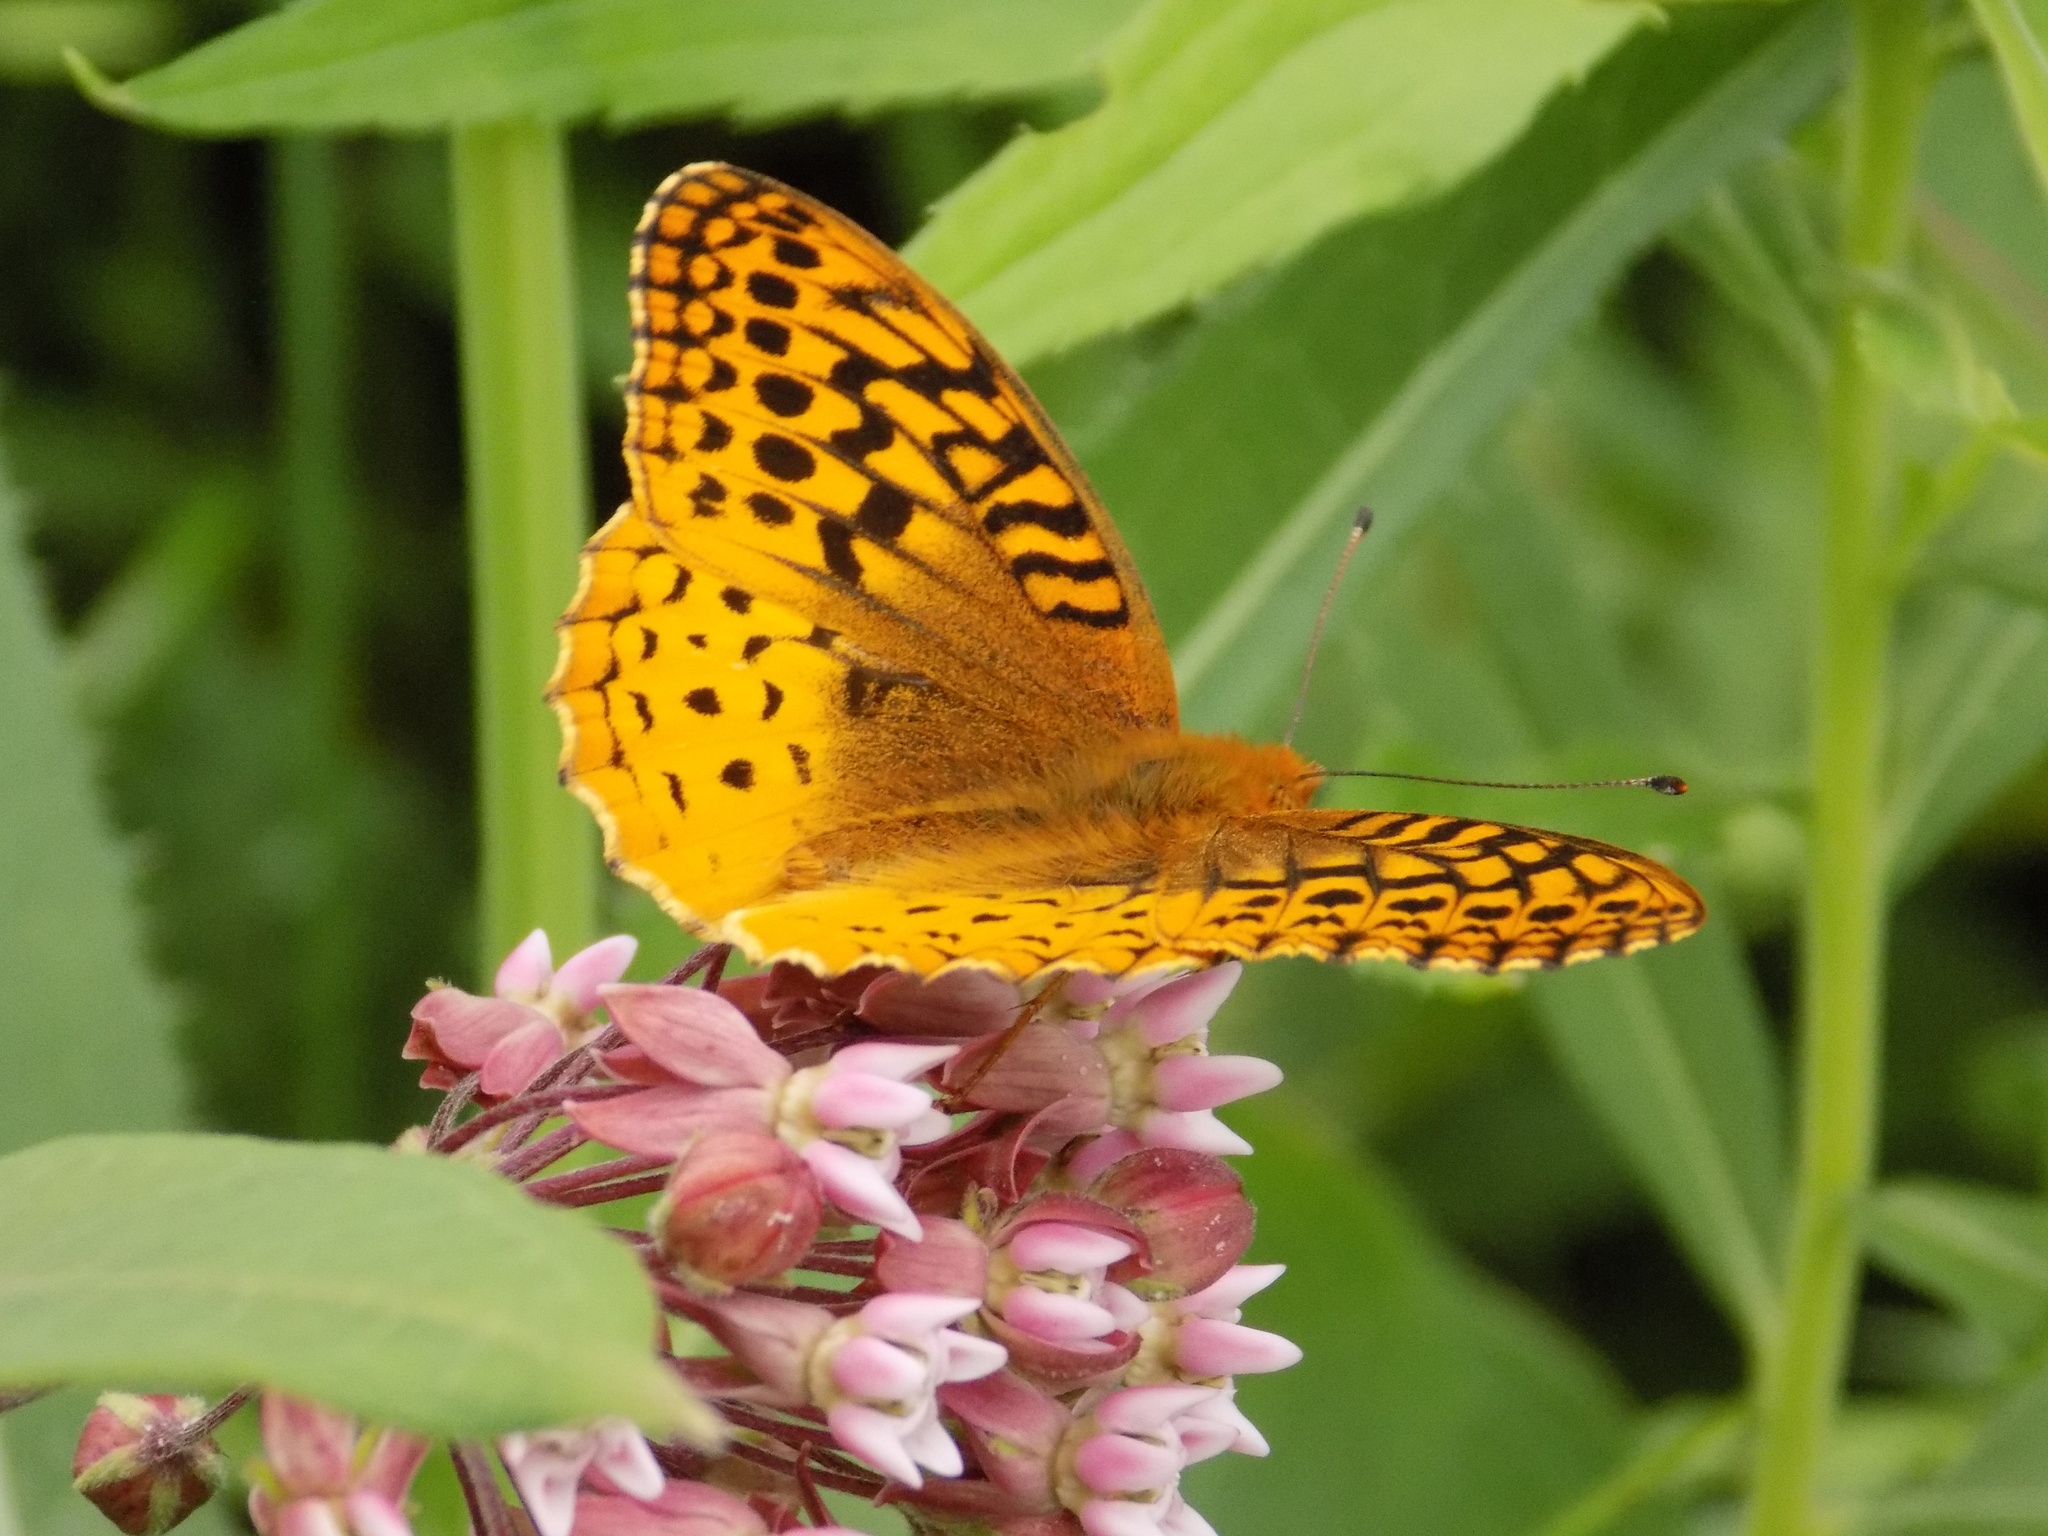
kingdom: Animalia
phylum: Arthropoda
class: Insecta
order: Lepidoptera
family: Nymphalidae
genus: Speyeria
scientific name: Speyeria cybele
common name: Great spangled fritillary
